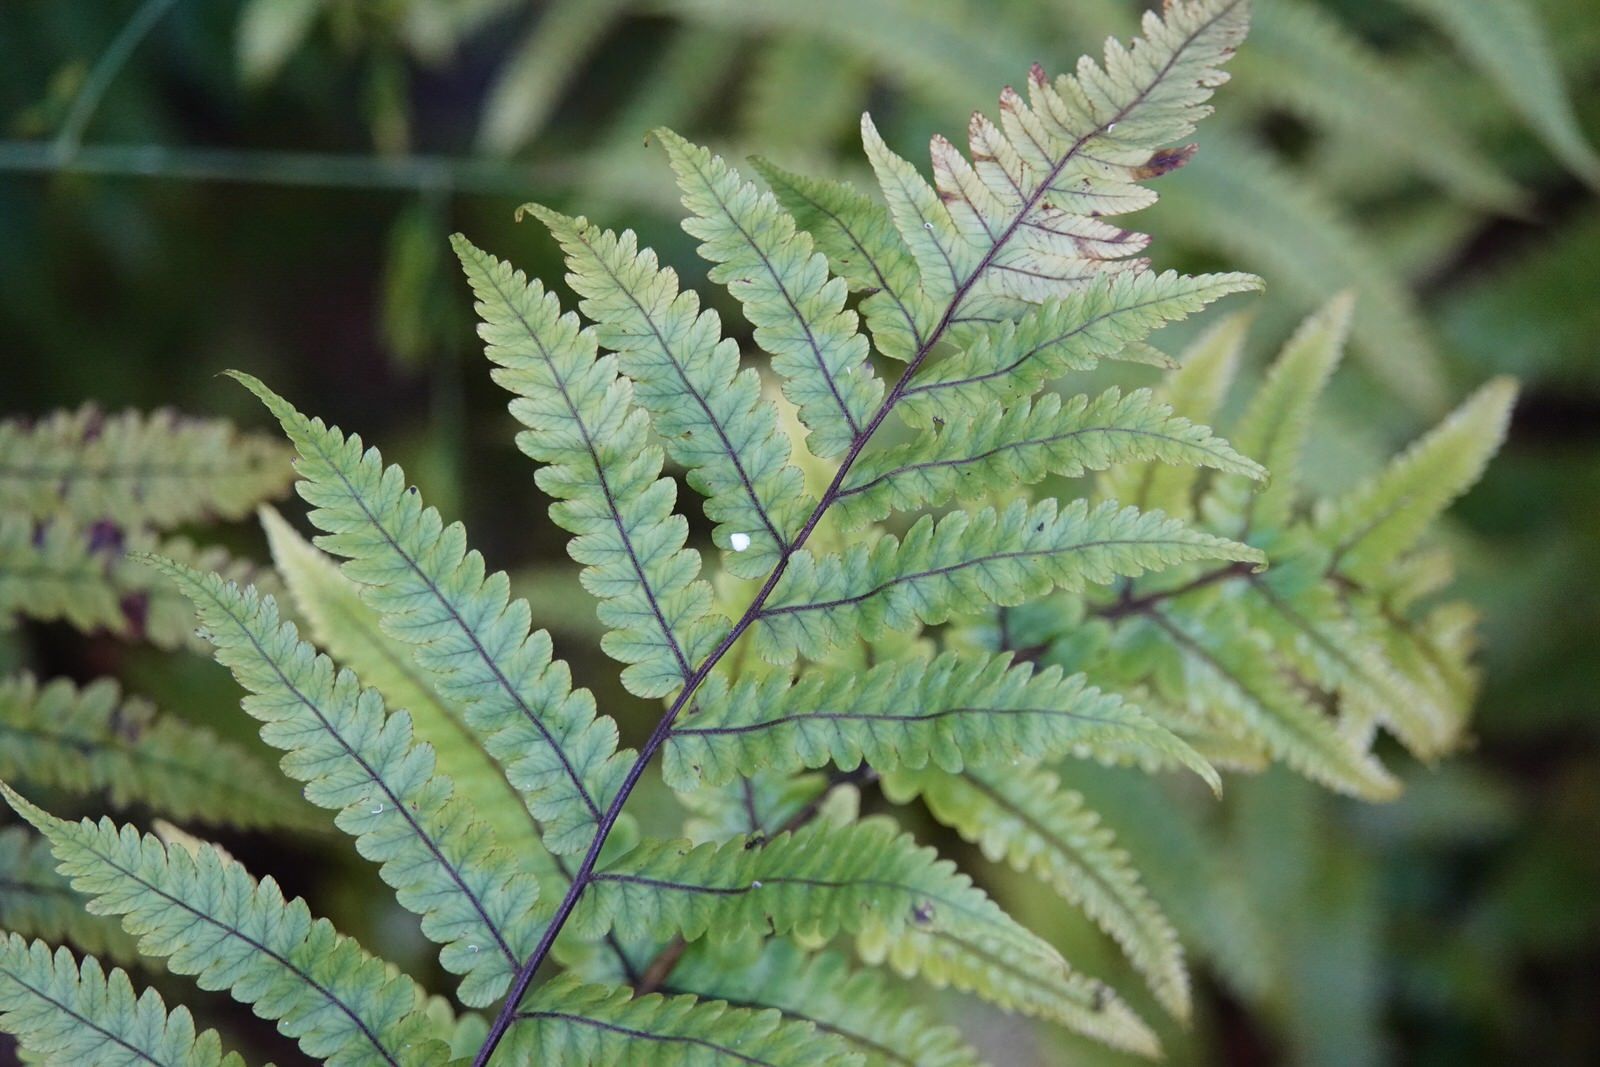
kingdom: Plantae
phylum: Tracheophyta
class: Polypodiopsida
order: Polypodiales
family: Thelypteridaceae
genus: Pakau
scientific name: Pakau pennigera
